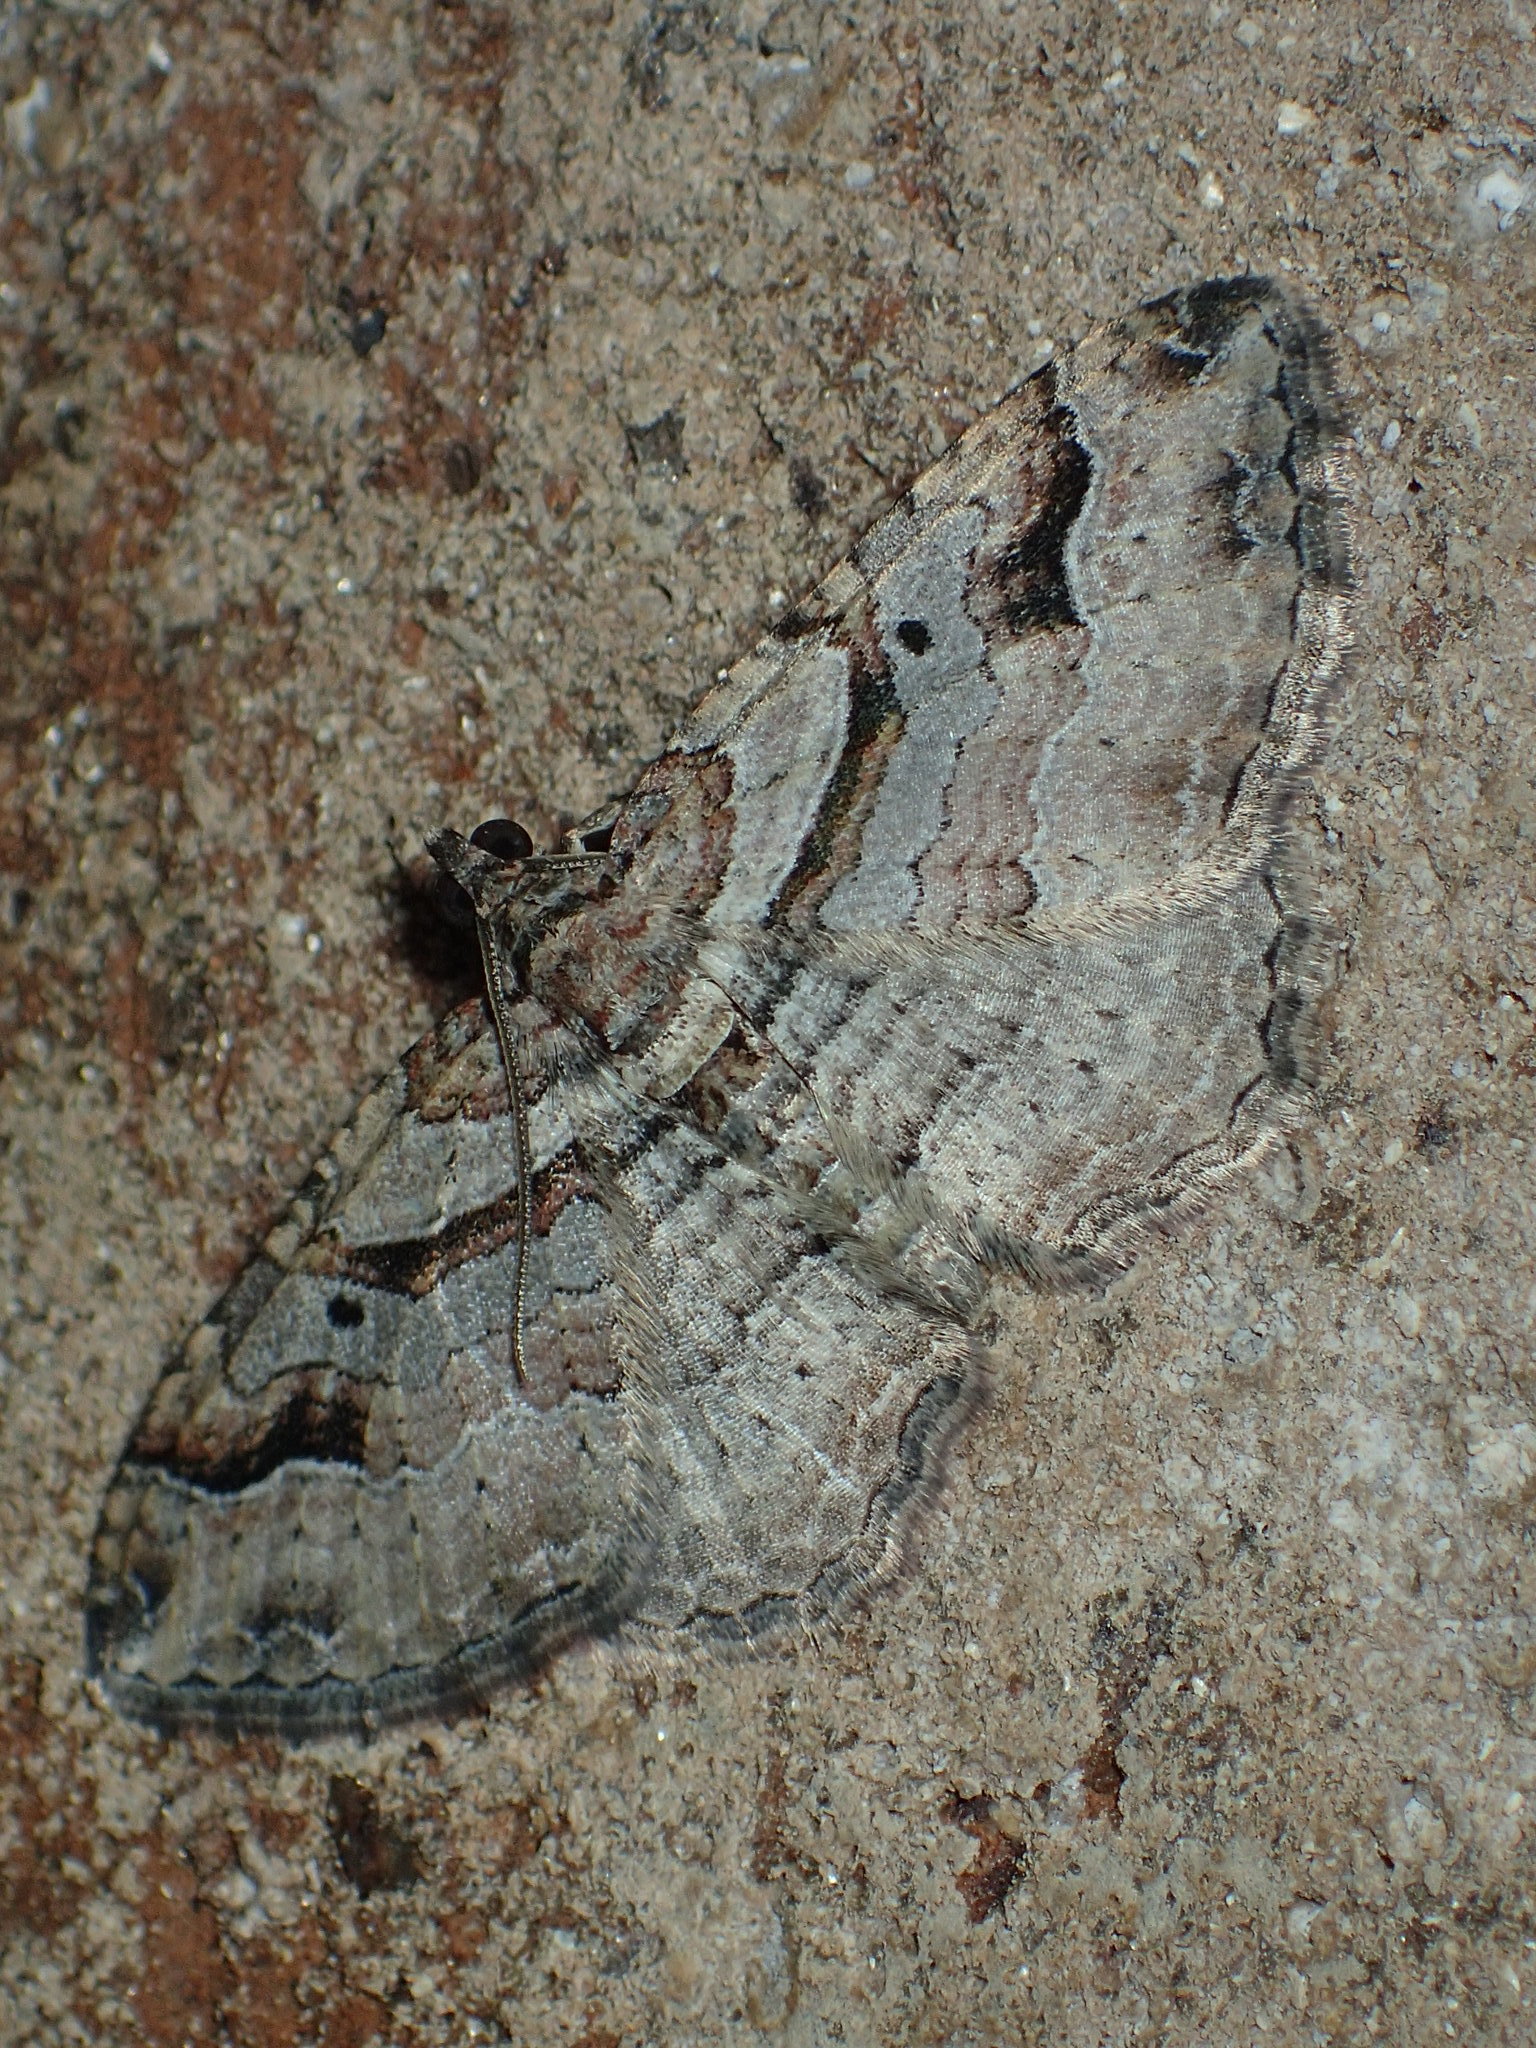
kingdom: Animalia
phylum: Arthropoda
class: Insecta
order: Lepidoptera
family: Geometridae
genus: Costaconvexa
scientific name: Costaconvexa centrostrigaria
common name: Bent-line carpet
